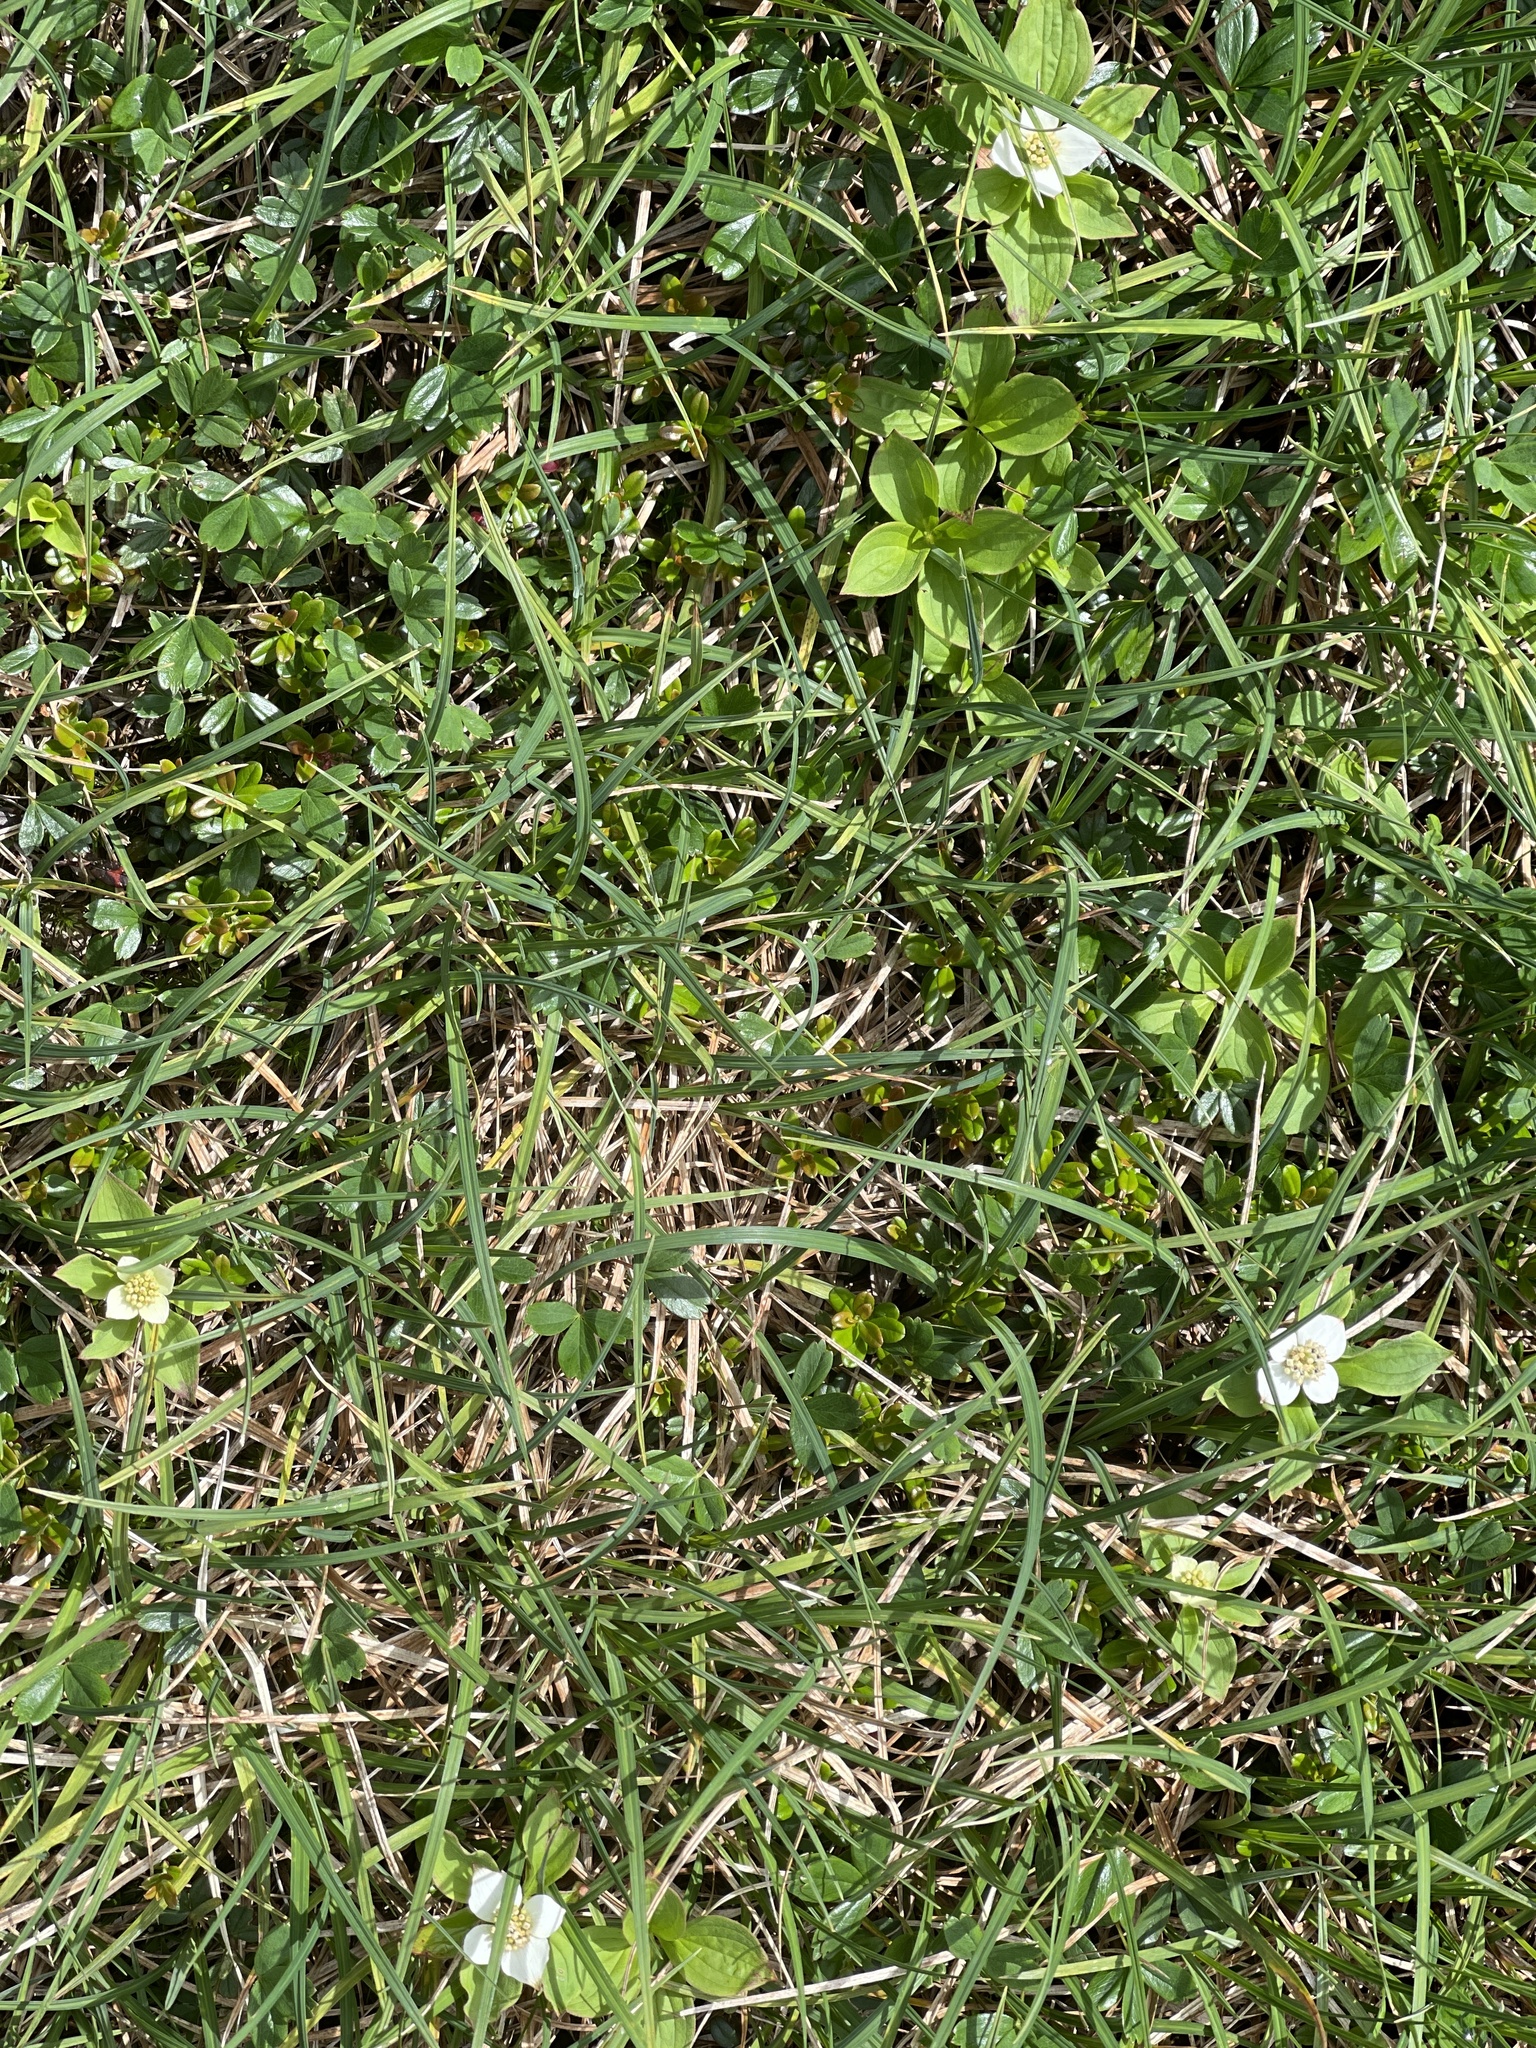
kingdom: Plantae
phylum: Tracheophyta
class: Magnoliopsida
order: Cornales
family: Cornaceae
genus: Cornus
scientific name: Cornus canadensis
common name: Creeping dogwood
